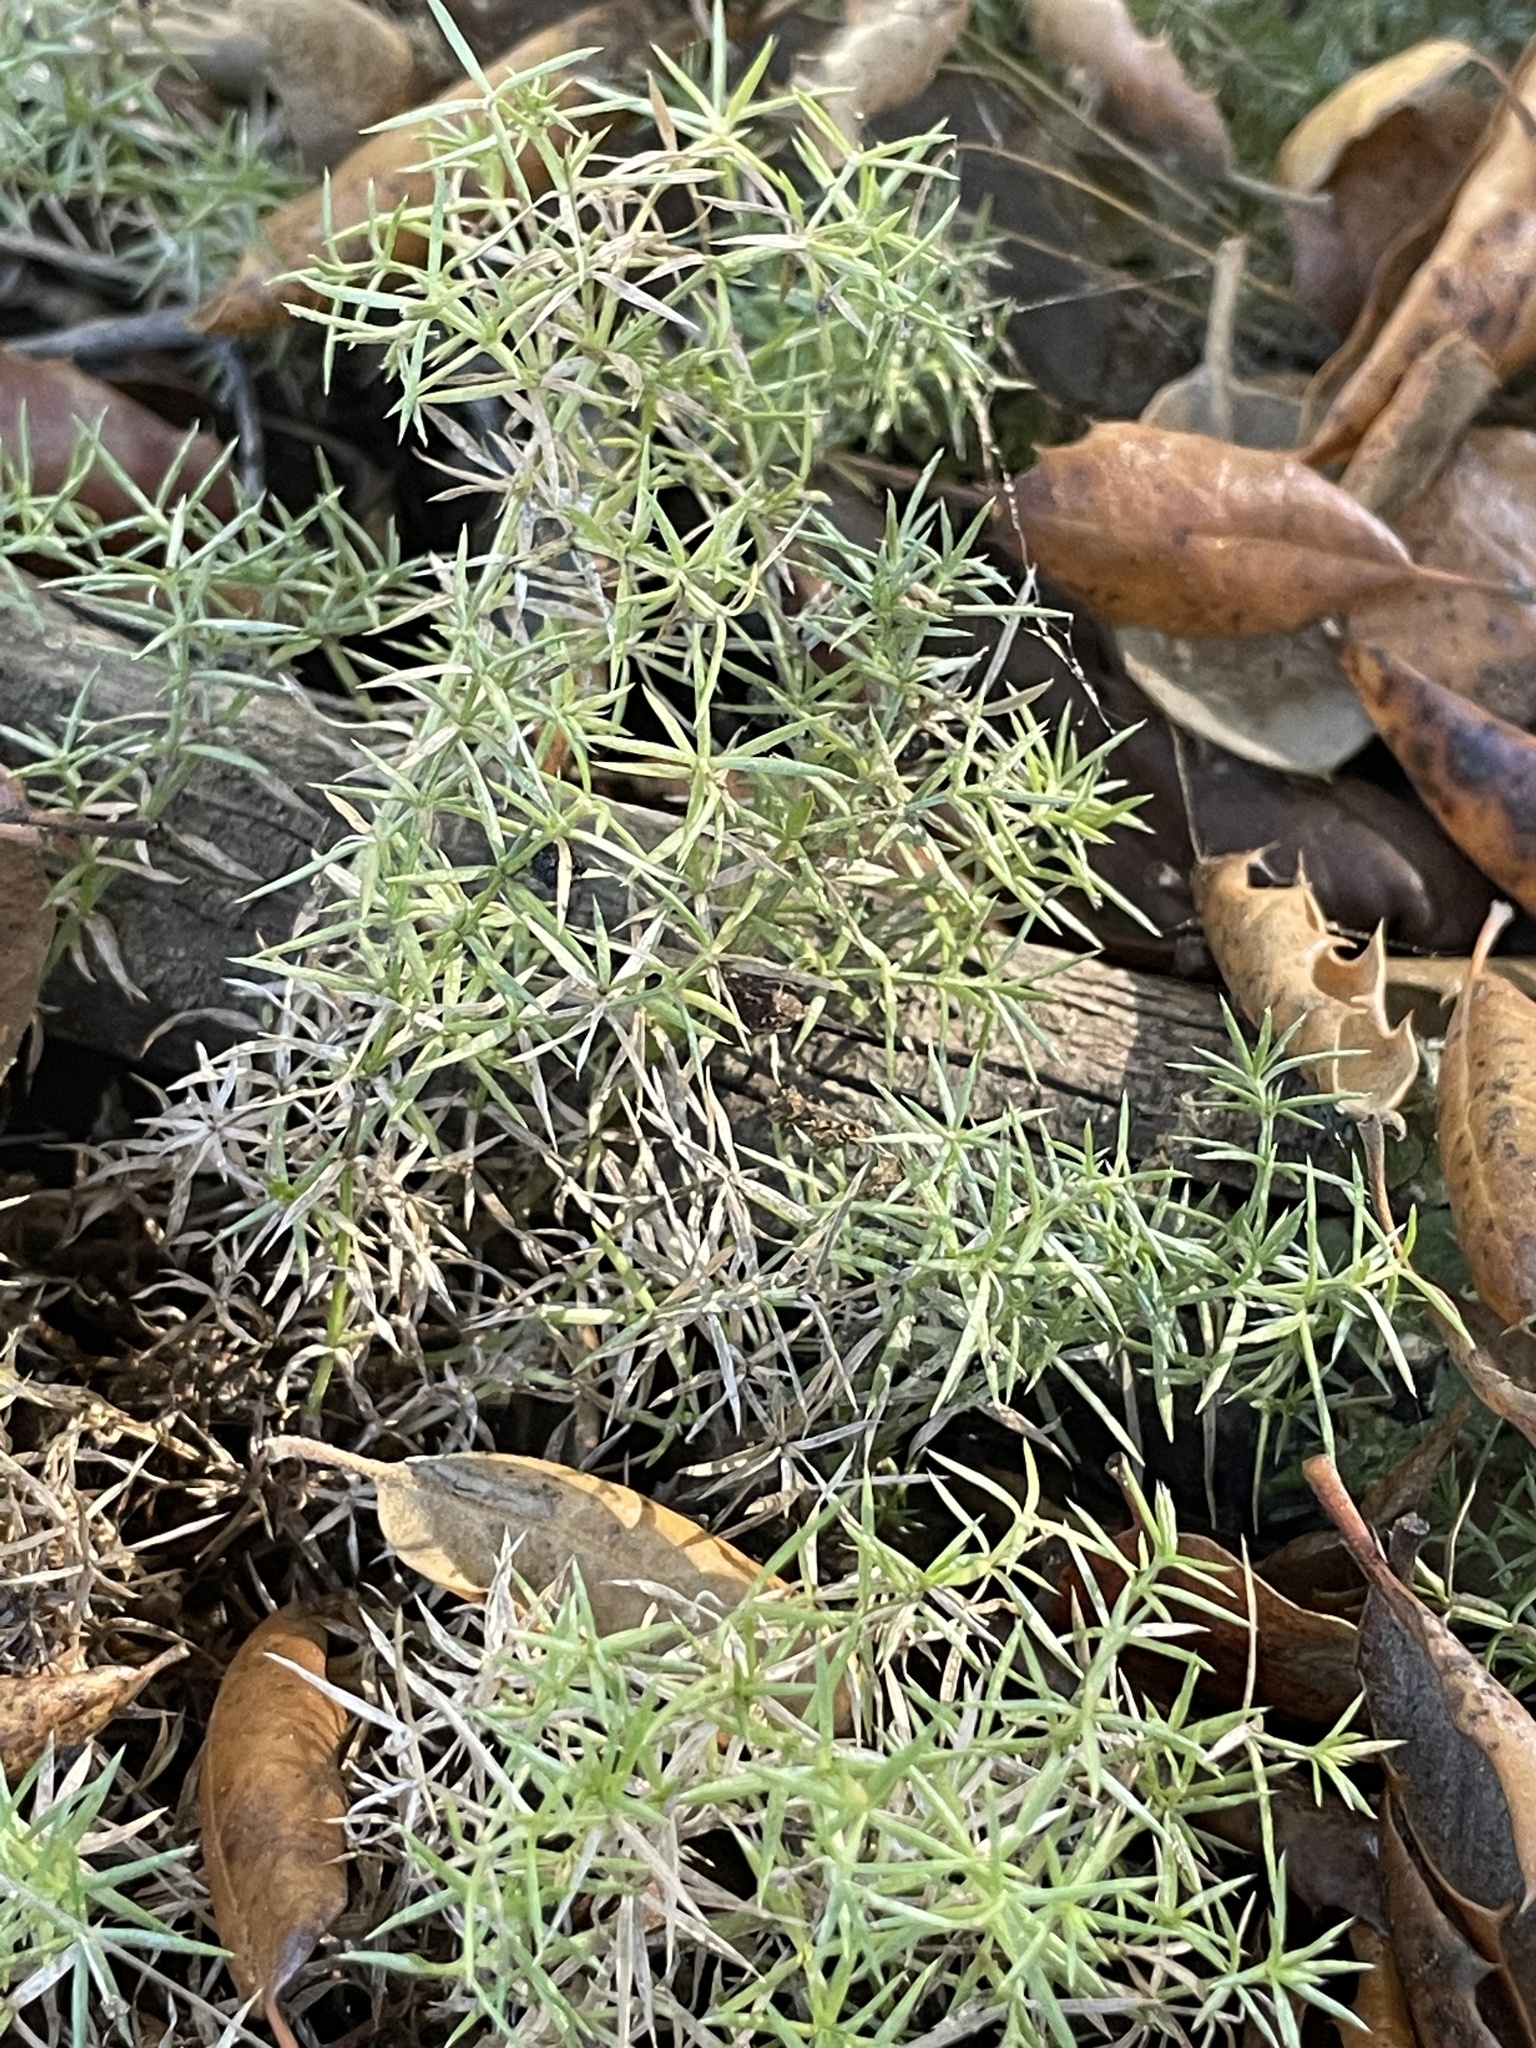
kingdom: Plantae
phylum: Tracheophyta
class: Magnoliopsida
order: Gentianales
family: Rubiaceae
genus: Galium
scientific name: Galium andrewsii
